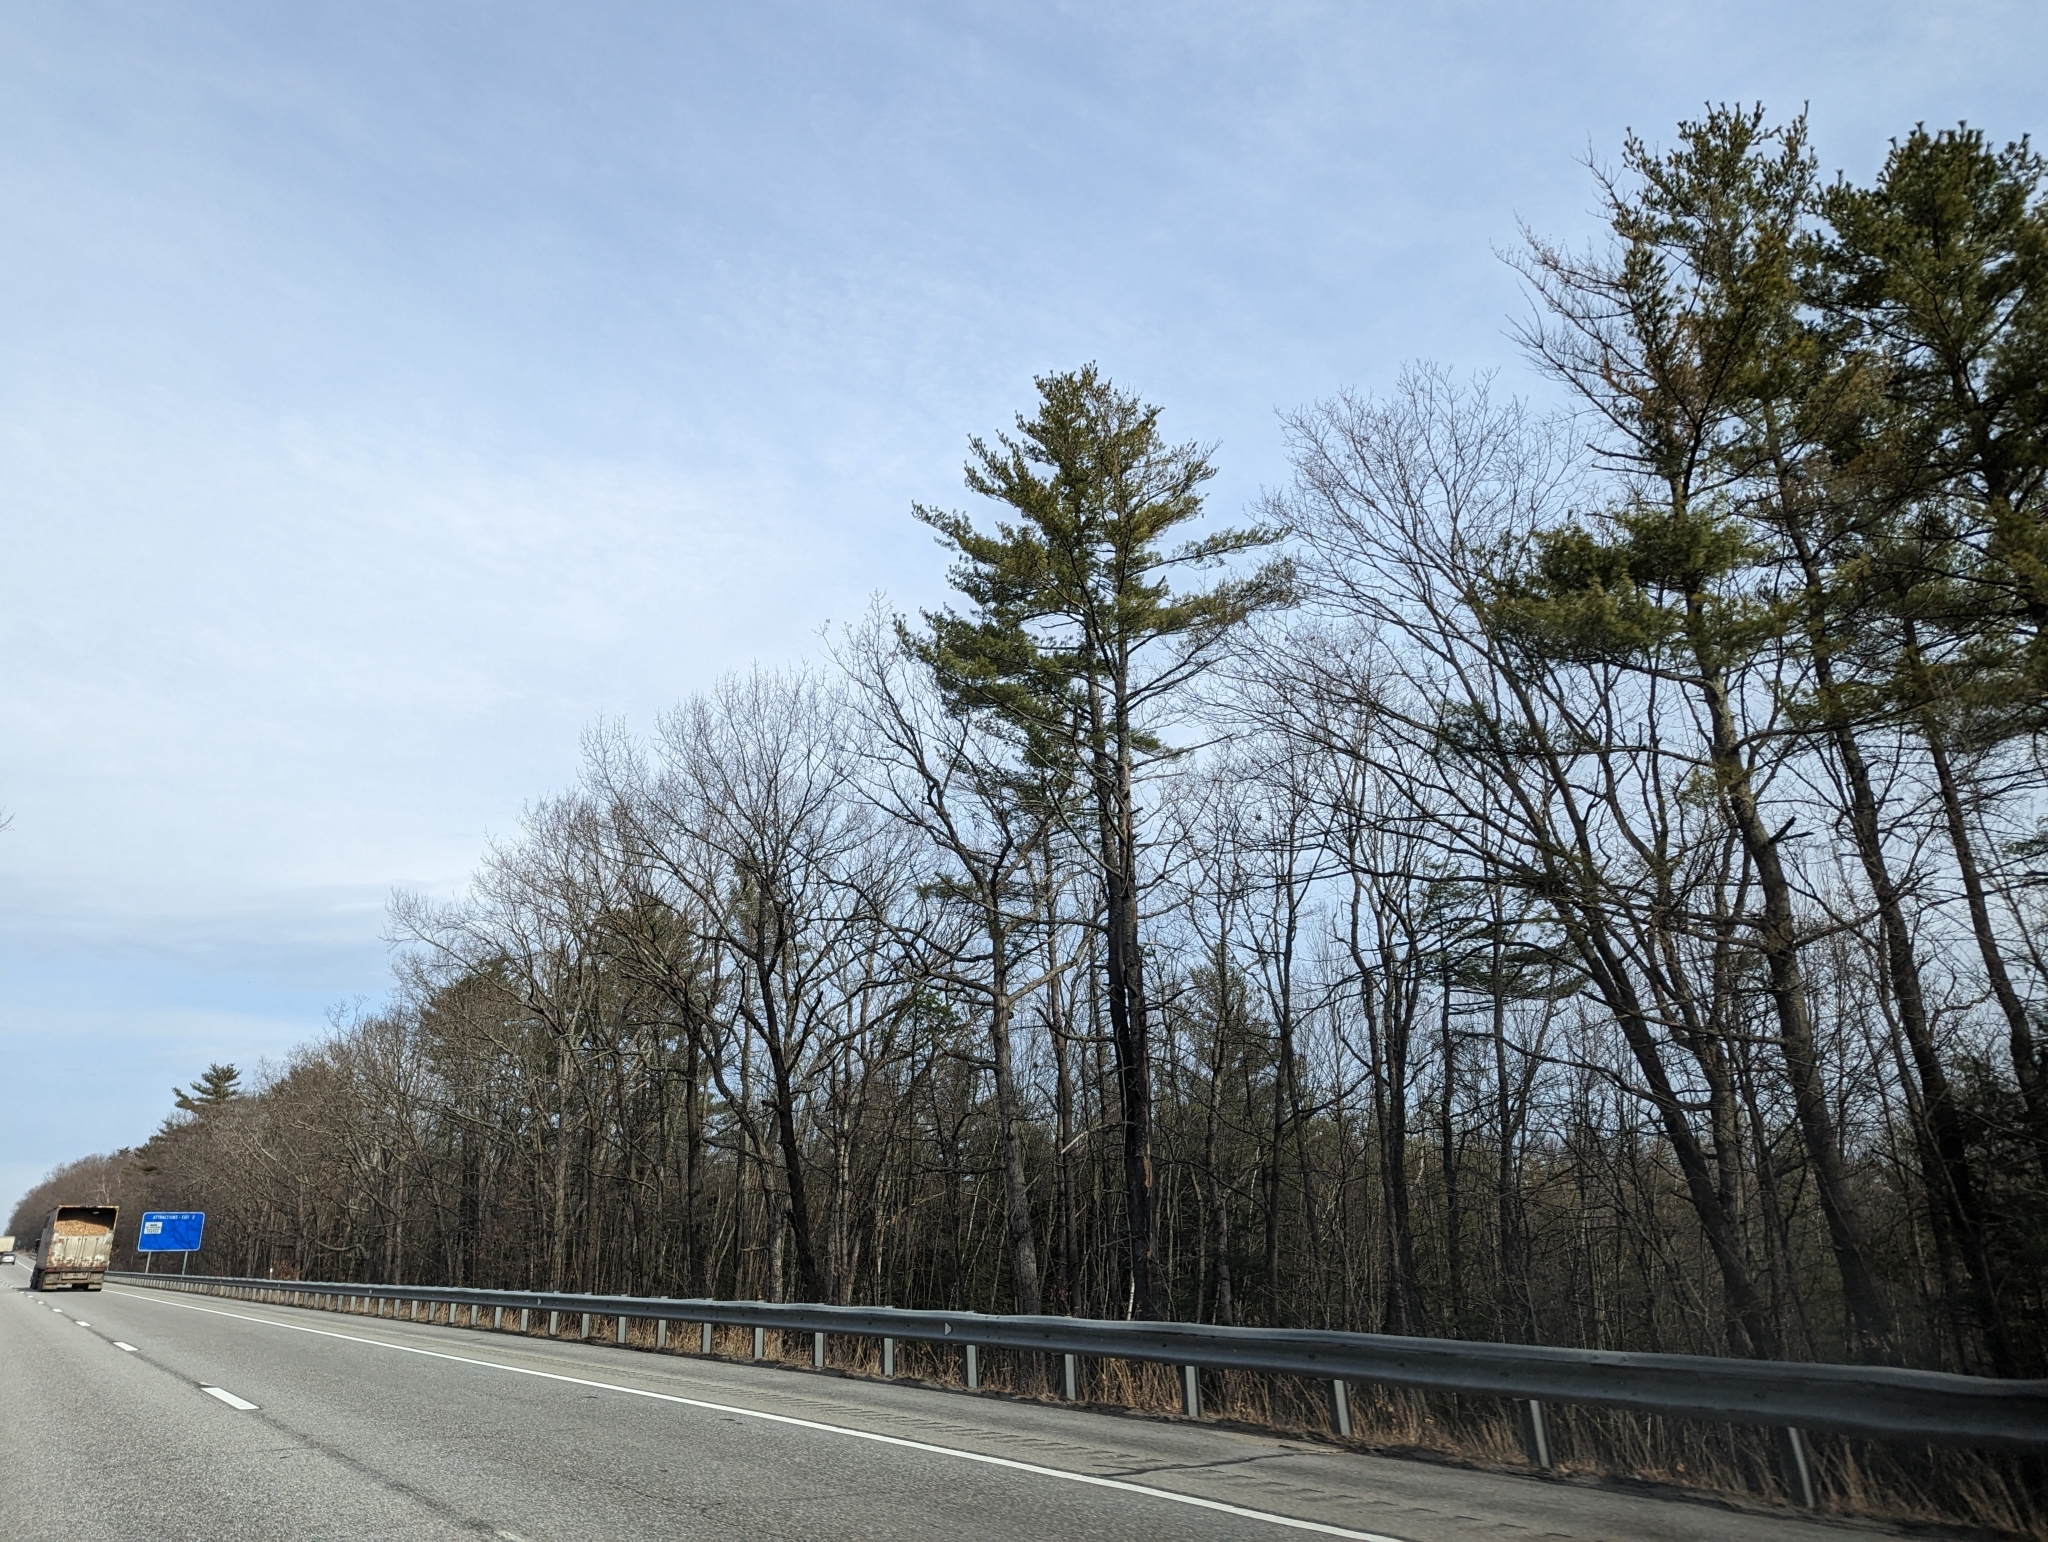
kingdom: Plantae
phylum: Tracheophyta
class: Pinopsida
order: Pinales
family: Pinaceae
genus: Pinus
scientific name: Pinus strobus
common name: Weymouth pine
